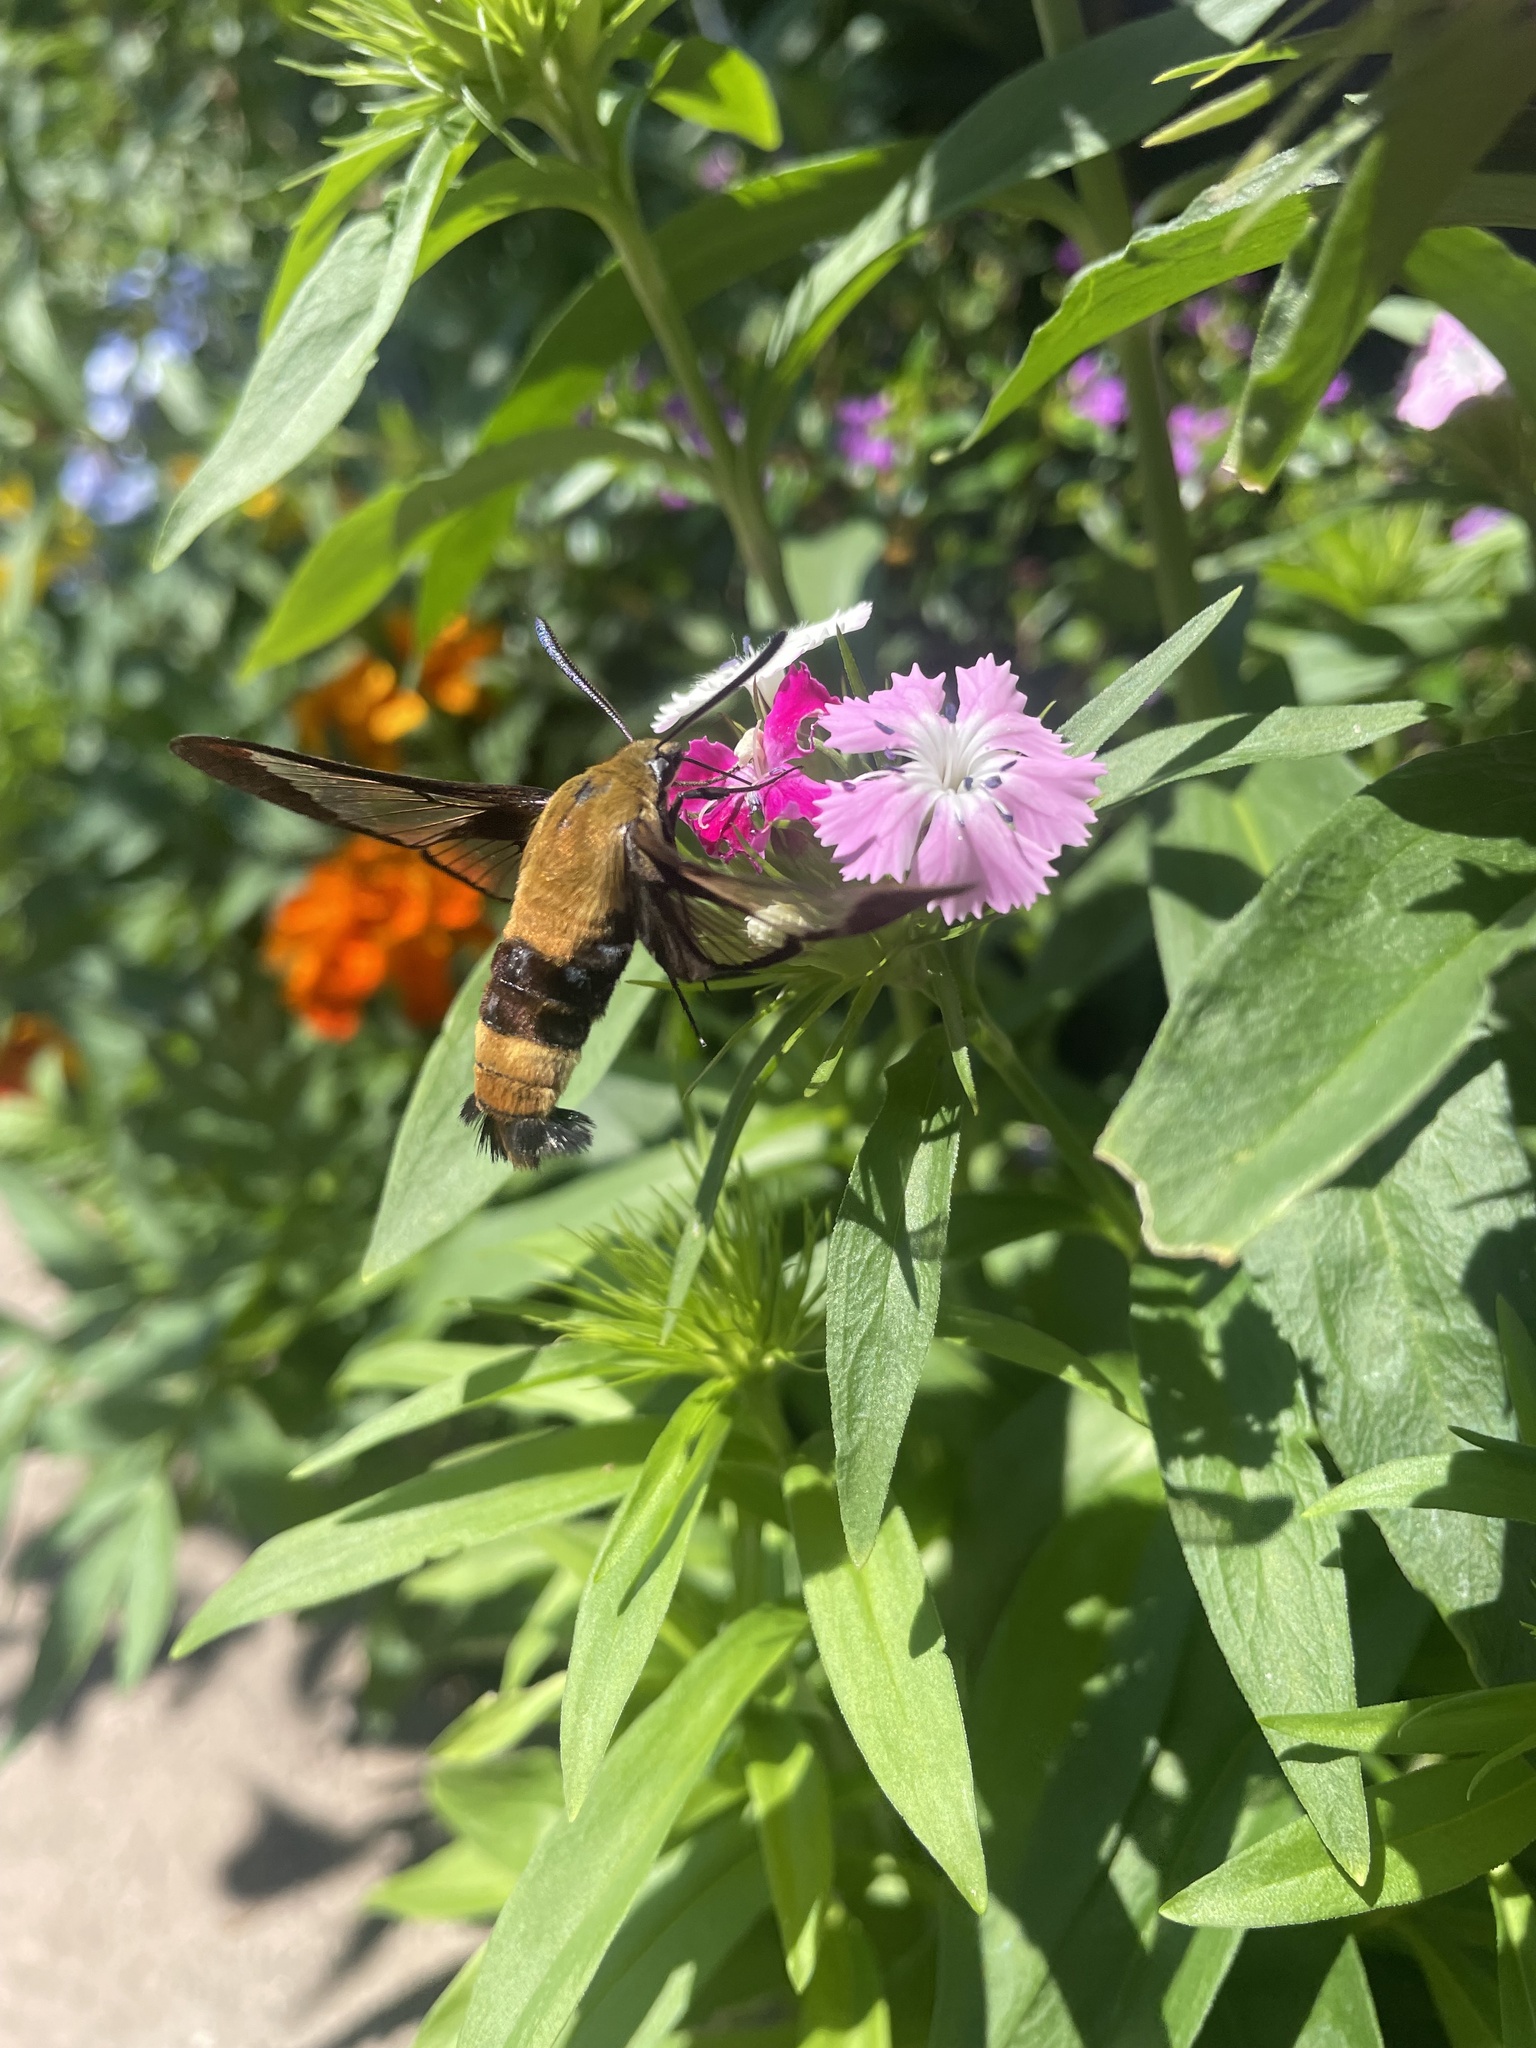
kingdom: Animalia
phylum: Arthropoda
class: Insecta
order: Lepidoptera
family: Sphingidae
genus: Hemaris
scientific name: Hemaris diffinis
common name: Bumblebee moth
